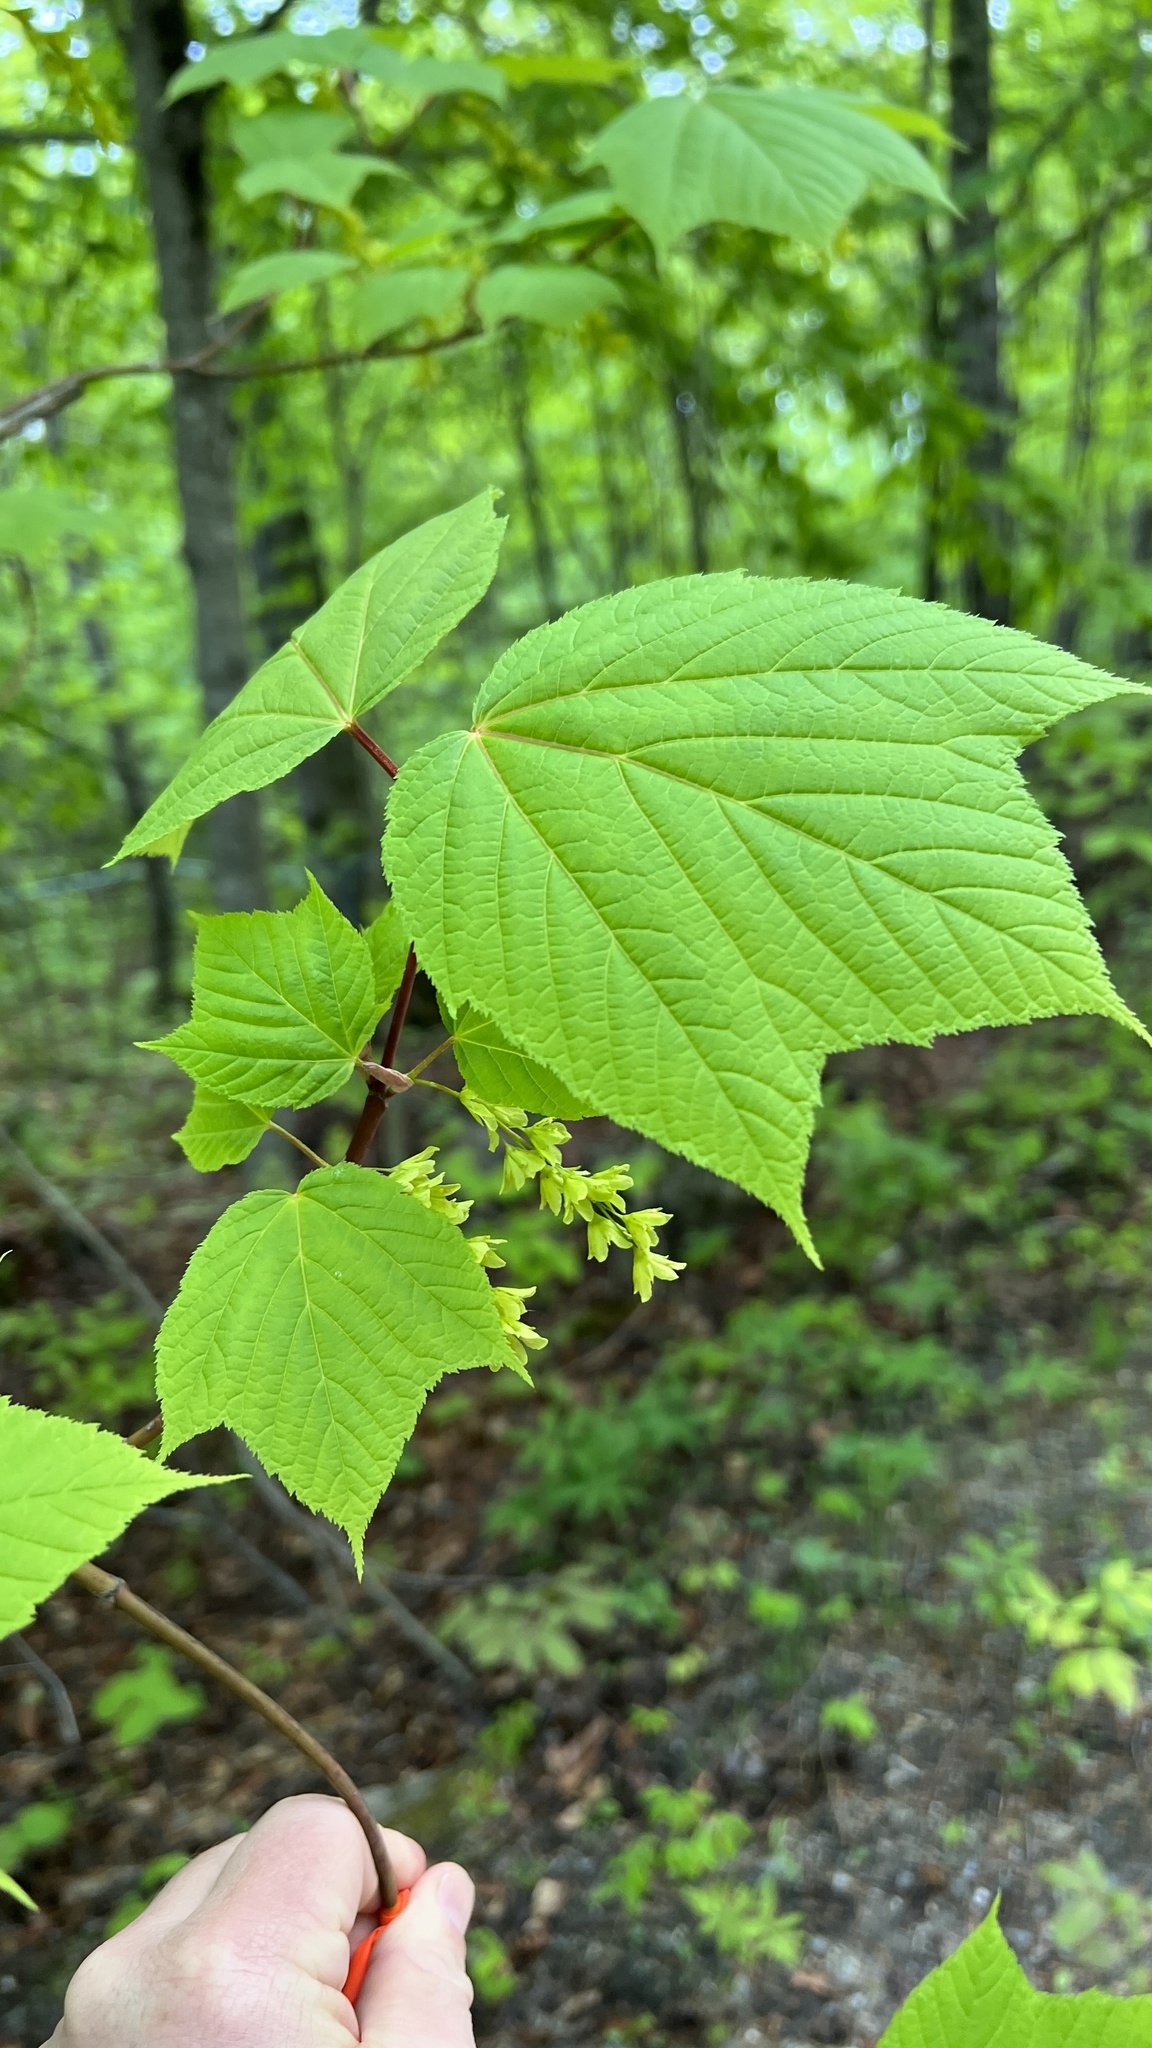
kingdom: Plantae
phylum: Tracheophyta
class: Magnoliopsida
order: Sapindales
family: Sapindaceae
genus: Acer
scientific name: Acer pensylvanicum
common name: Moosewood
